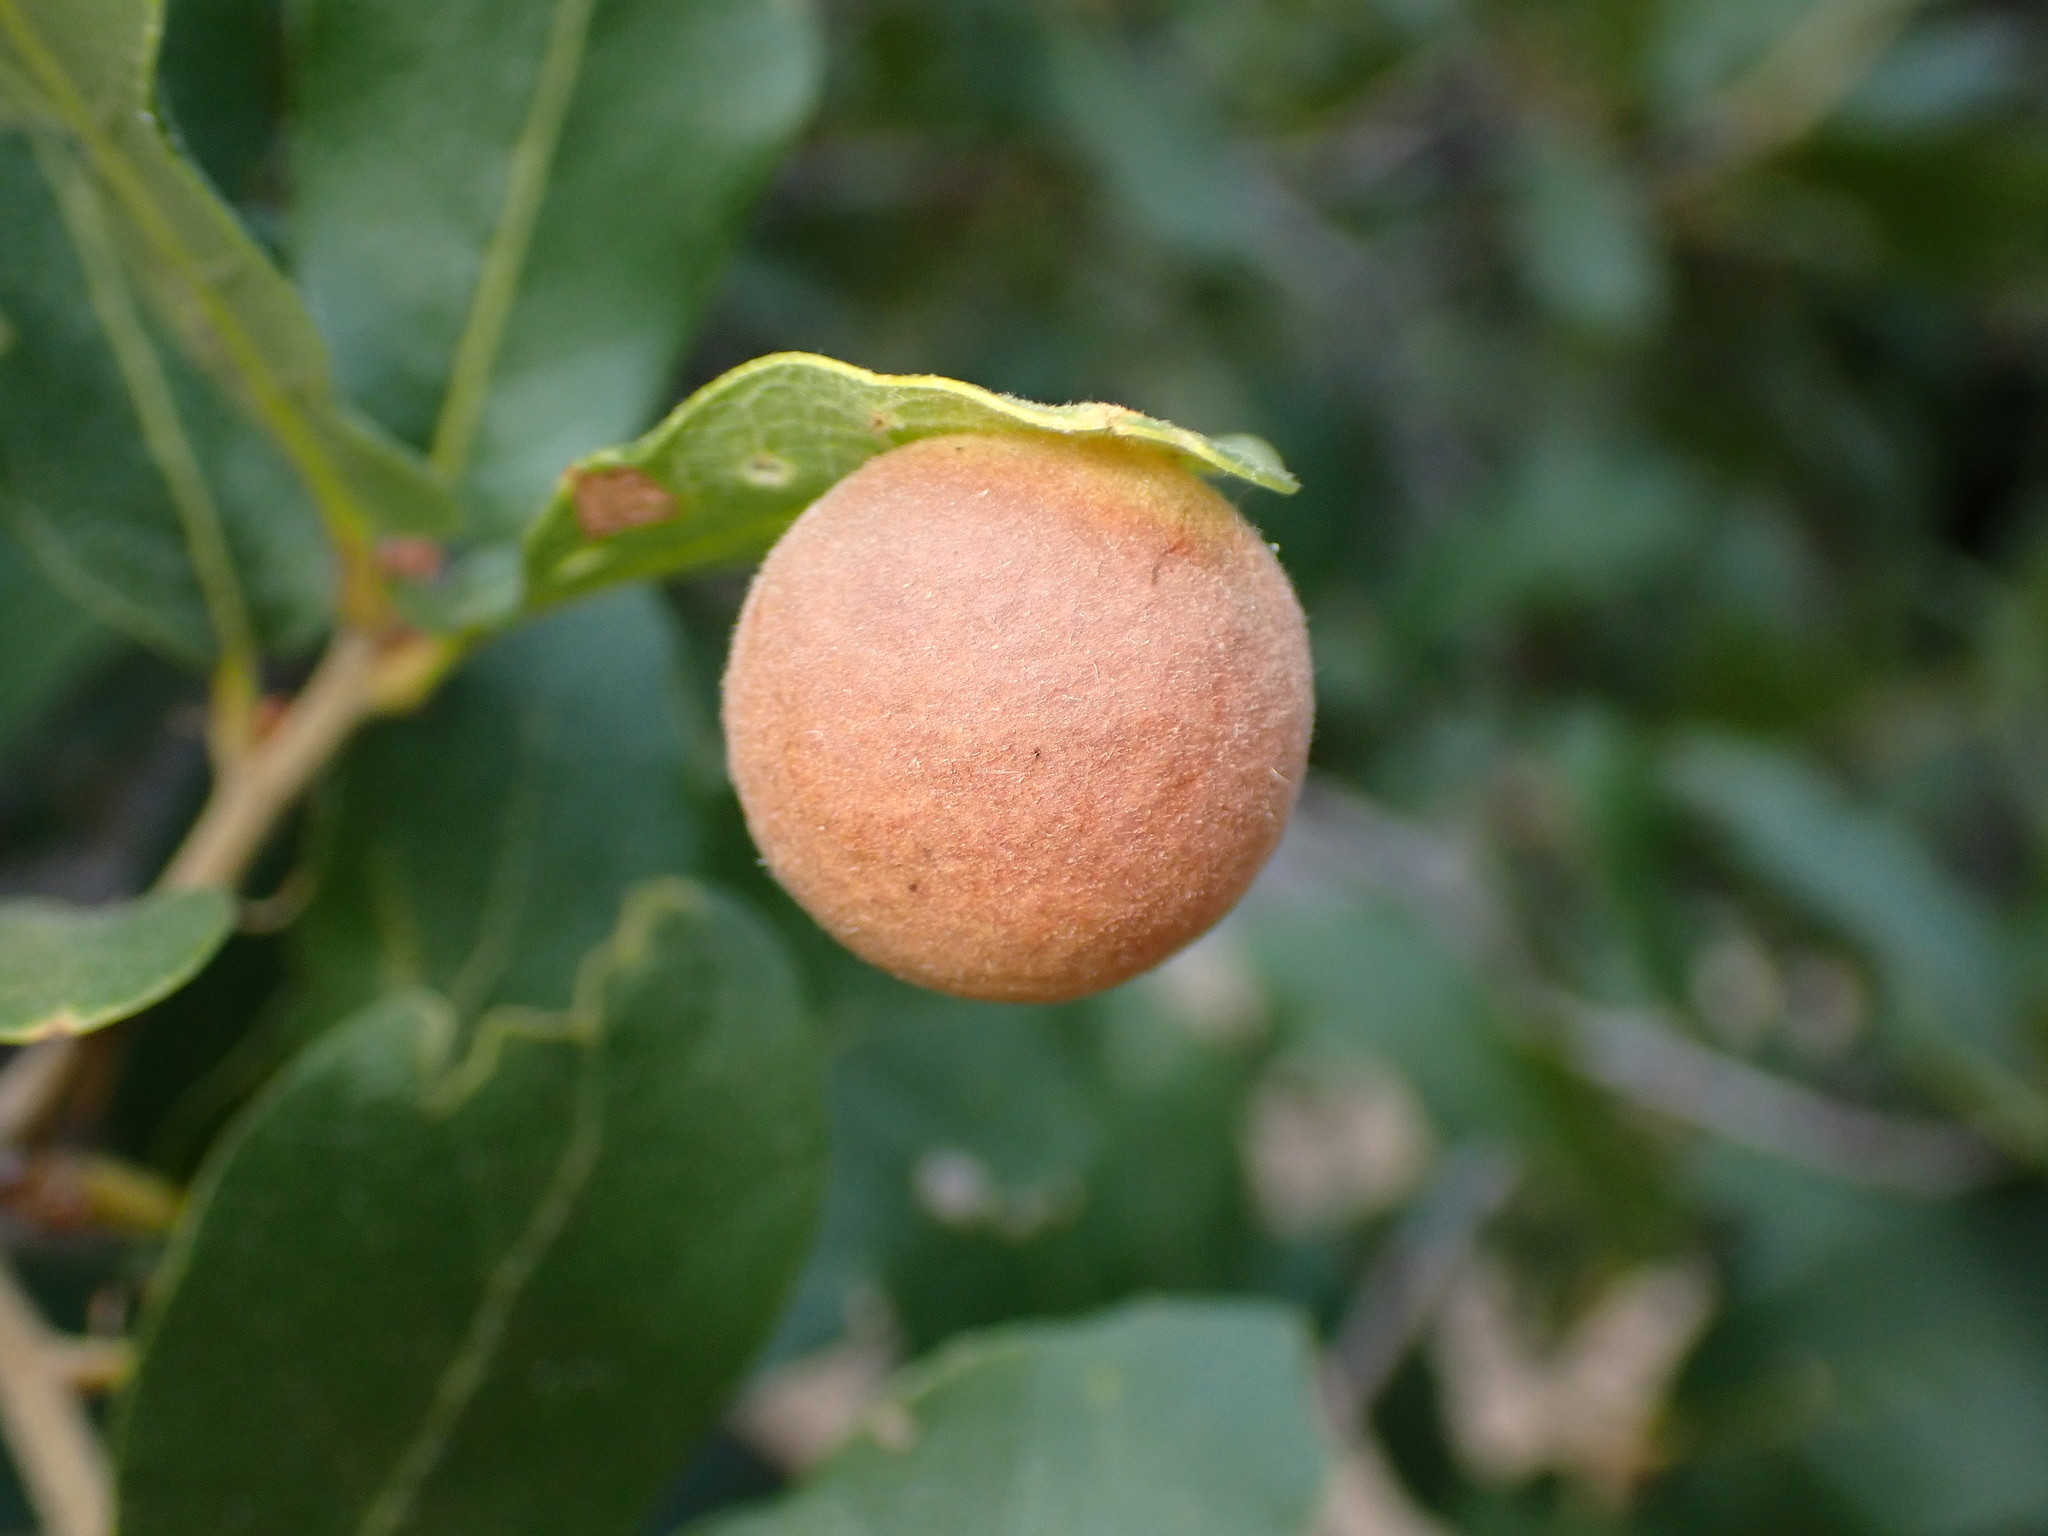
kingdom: Animalia
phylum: Arthropoda
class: Insecta
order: Hymenoptera
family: Cynipidae
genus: Atrusca
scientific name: Atrusca
